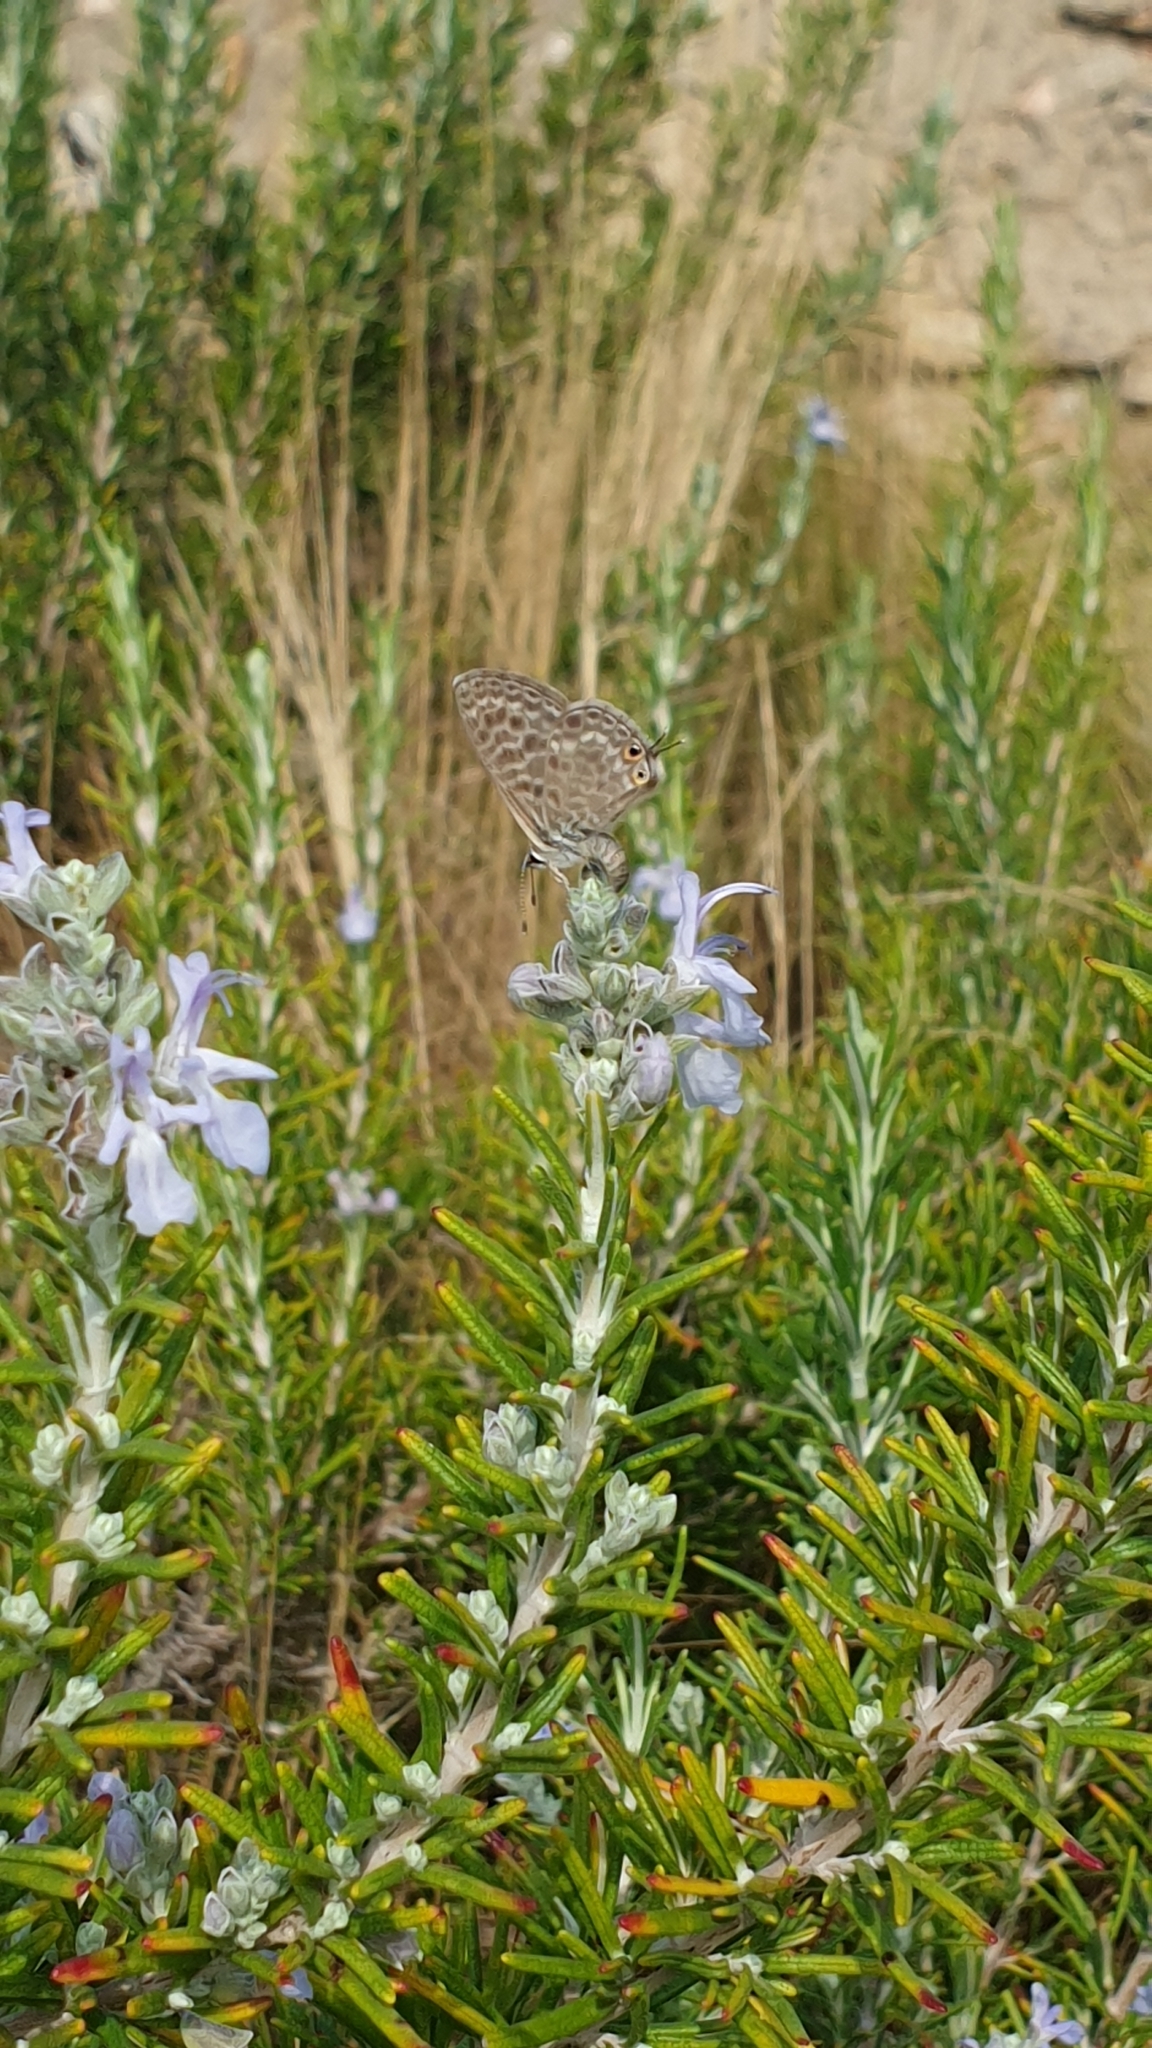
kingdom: Animalia
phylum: Arthropoda
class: Insecta
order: Lepidoptera
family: Lycaenidae
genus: Leptotes
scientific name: Leptotes pirithous
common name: Lang's short-tailed blue
